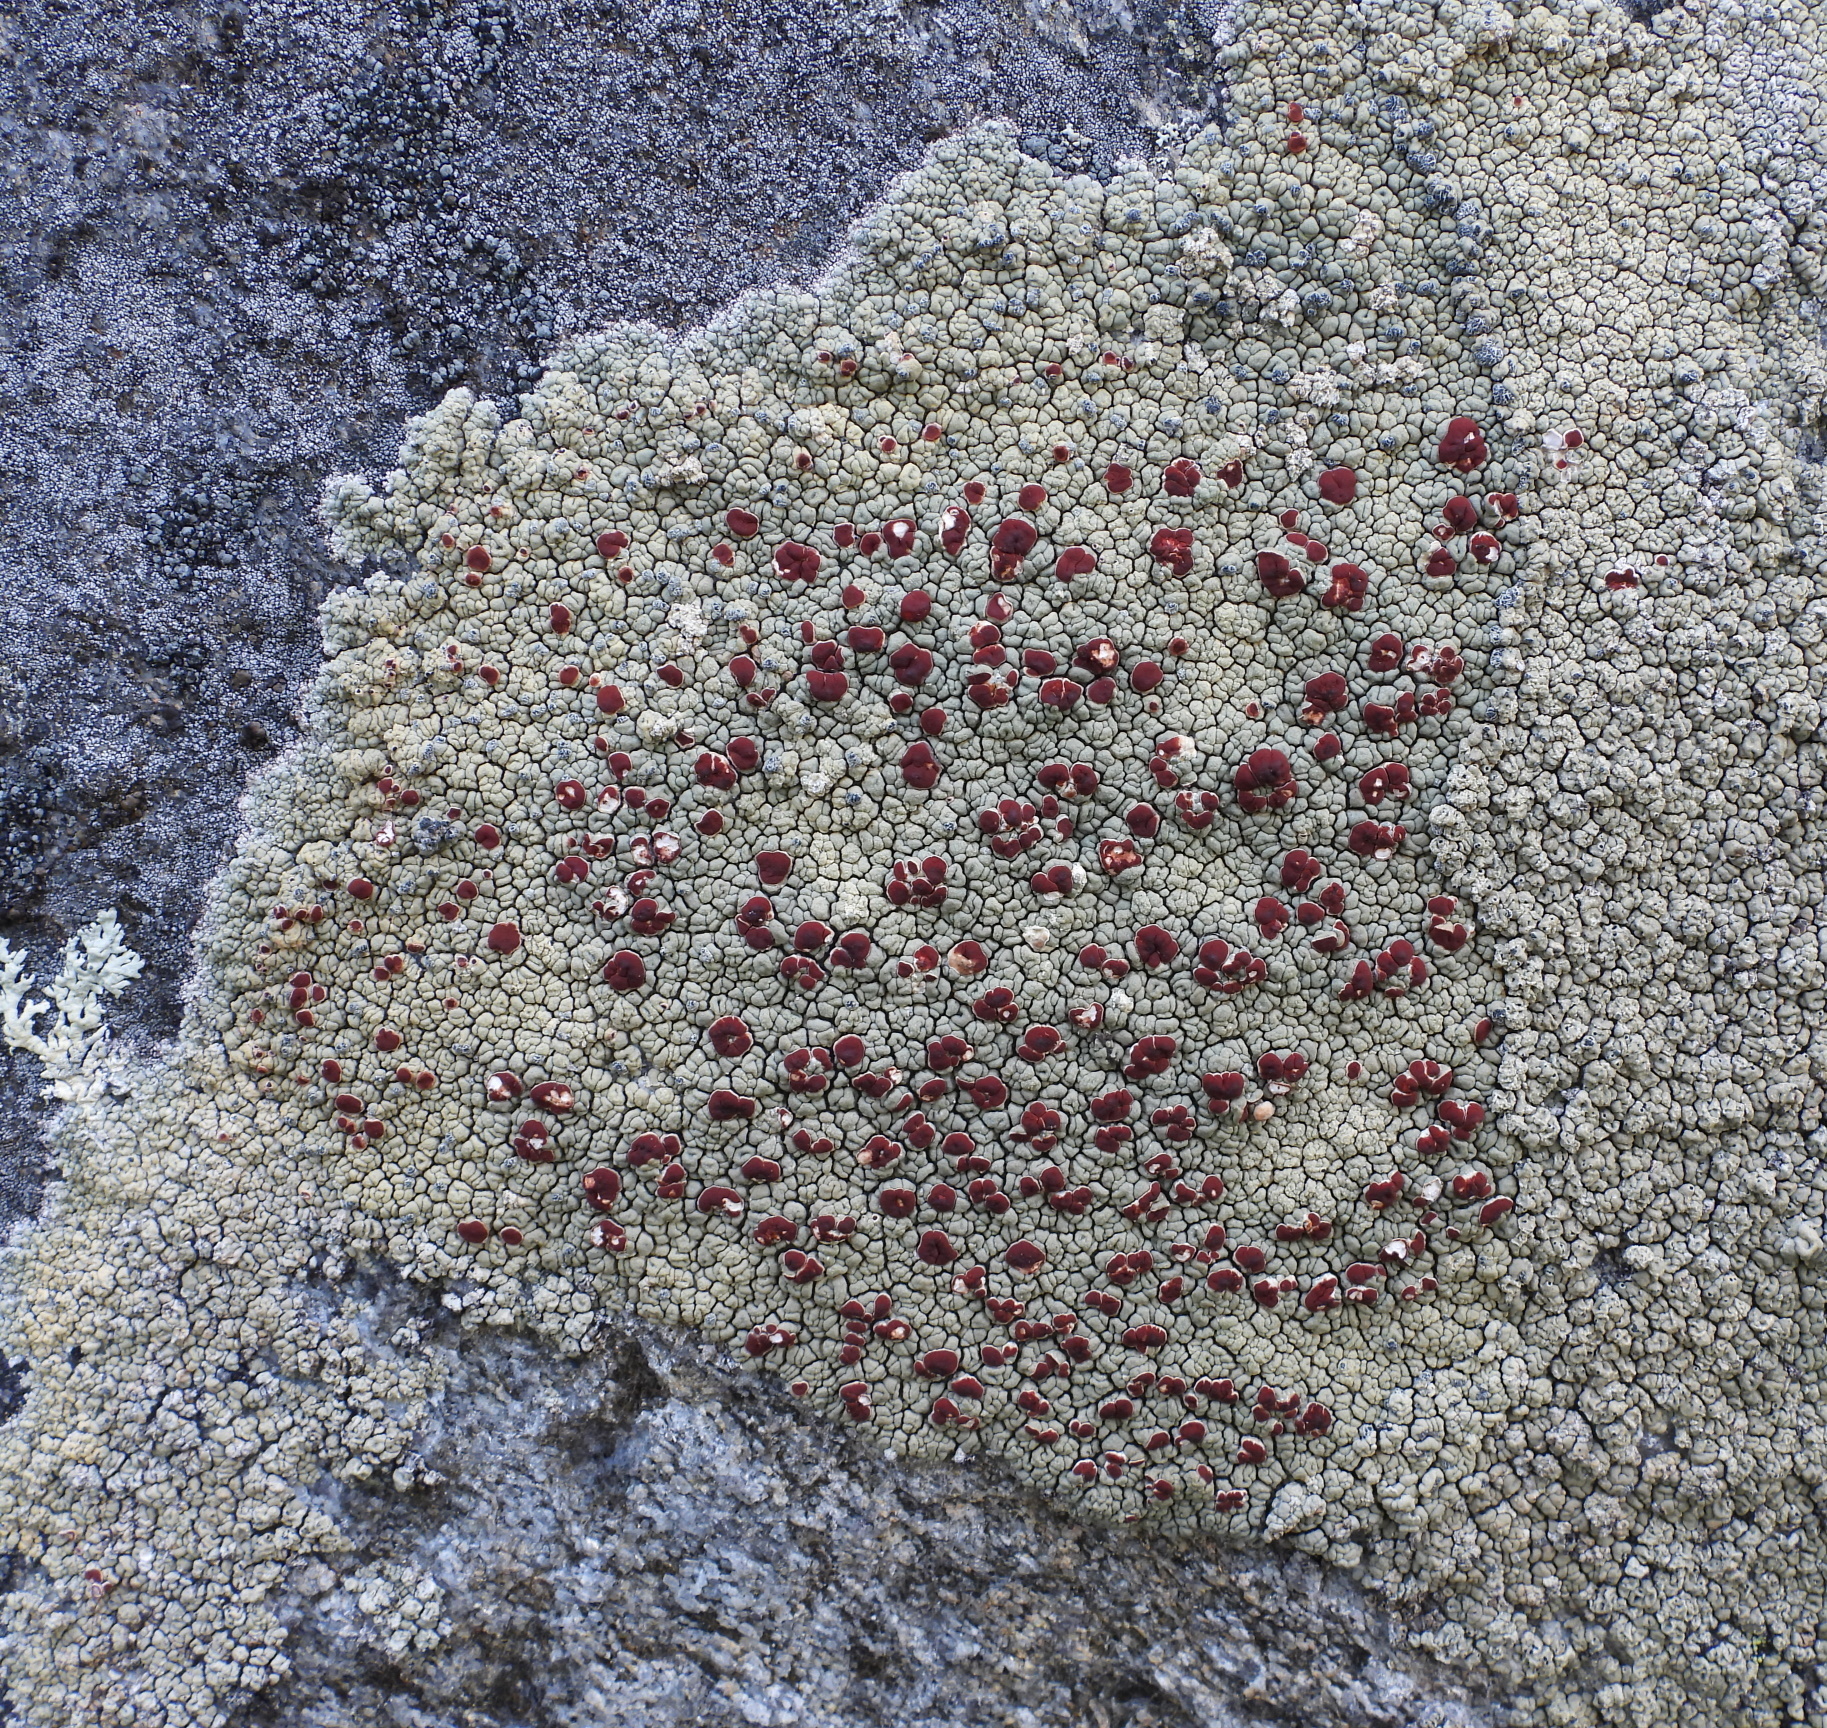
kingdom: Fungi
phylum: Ascomycota
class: Lecanoromycetes
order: Umbilicariales
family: Ophioparmaceae
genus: Ophioparma
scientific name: Ophioparma ventosa
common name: Blood-spot
